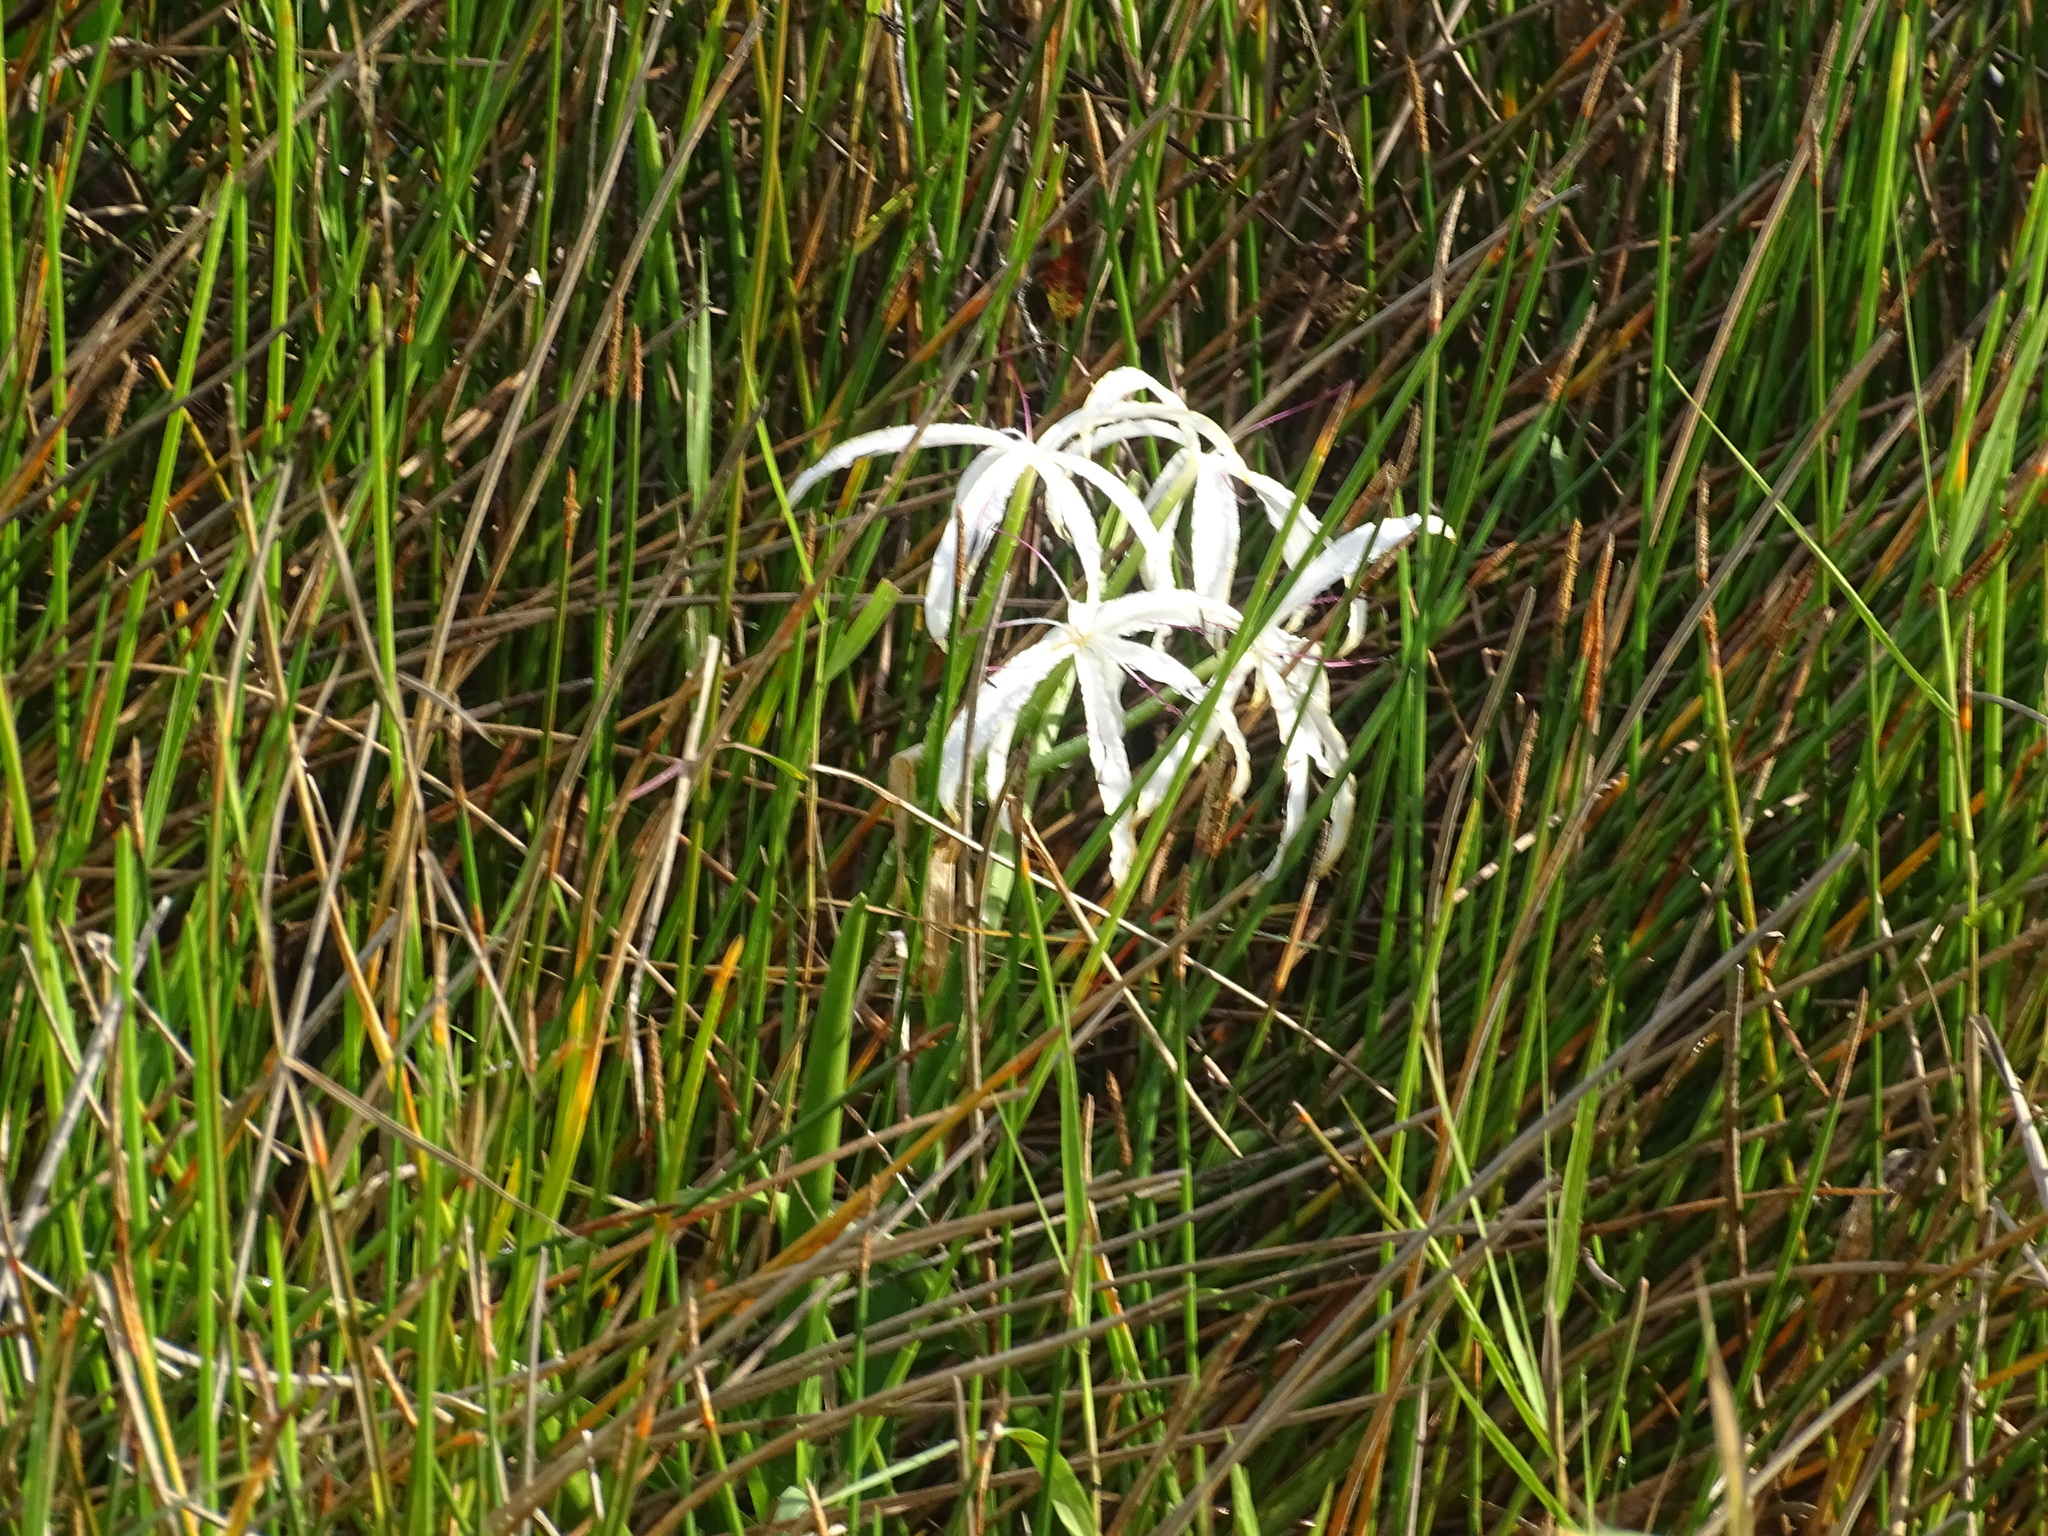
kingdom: Plantae
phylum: Tracheophyta
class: Liliopsida
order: Asparagales
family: Amaryllidaceae
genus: Crinum
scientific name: Crinum americanum
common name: Florida swamp-lily
